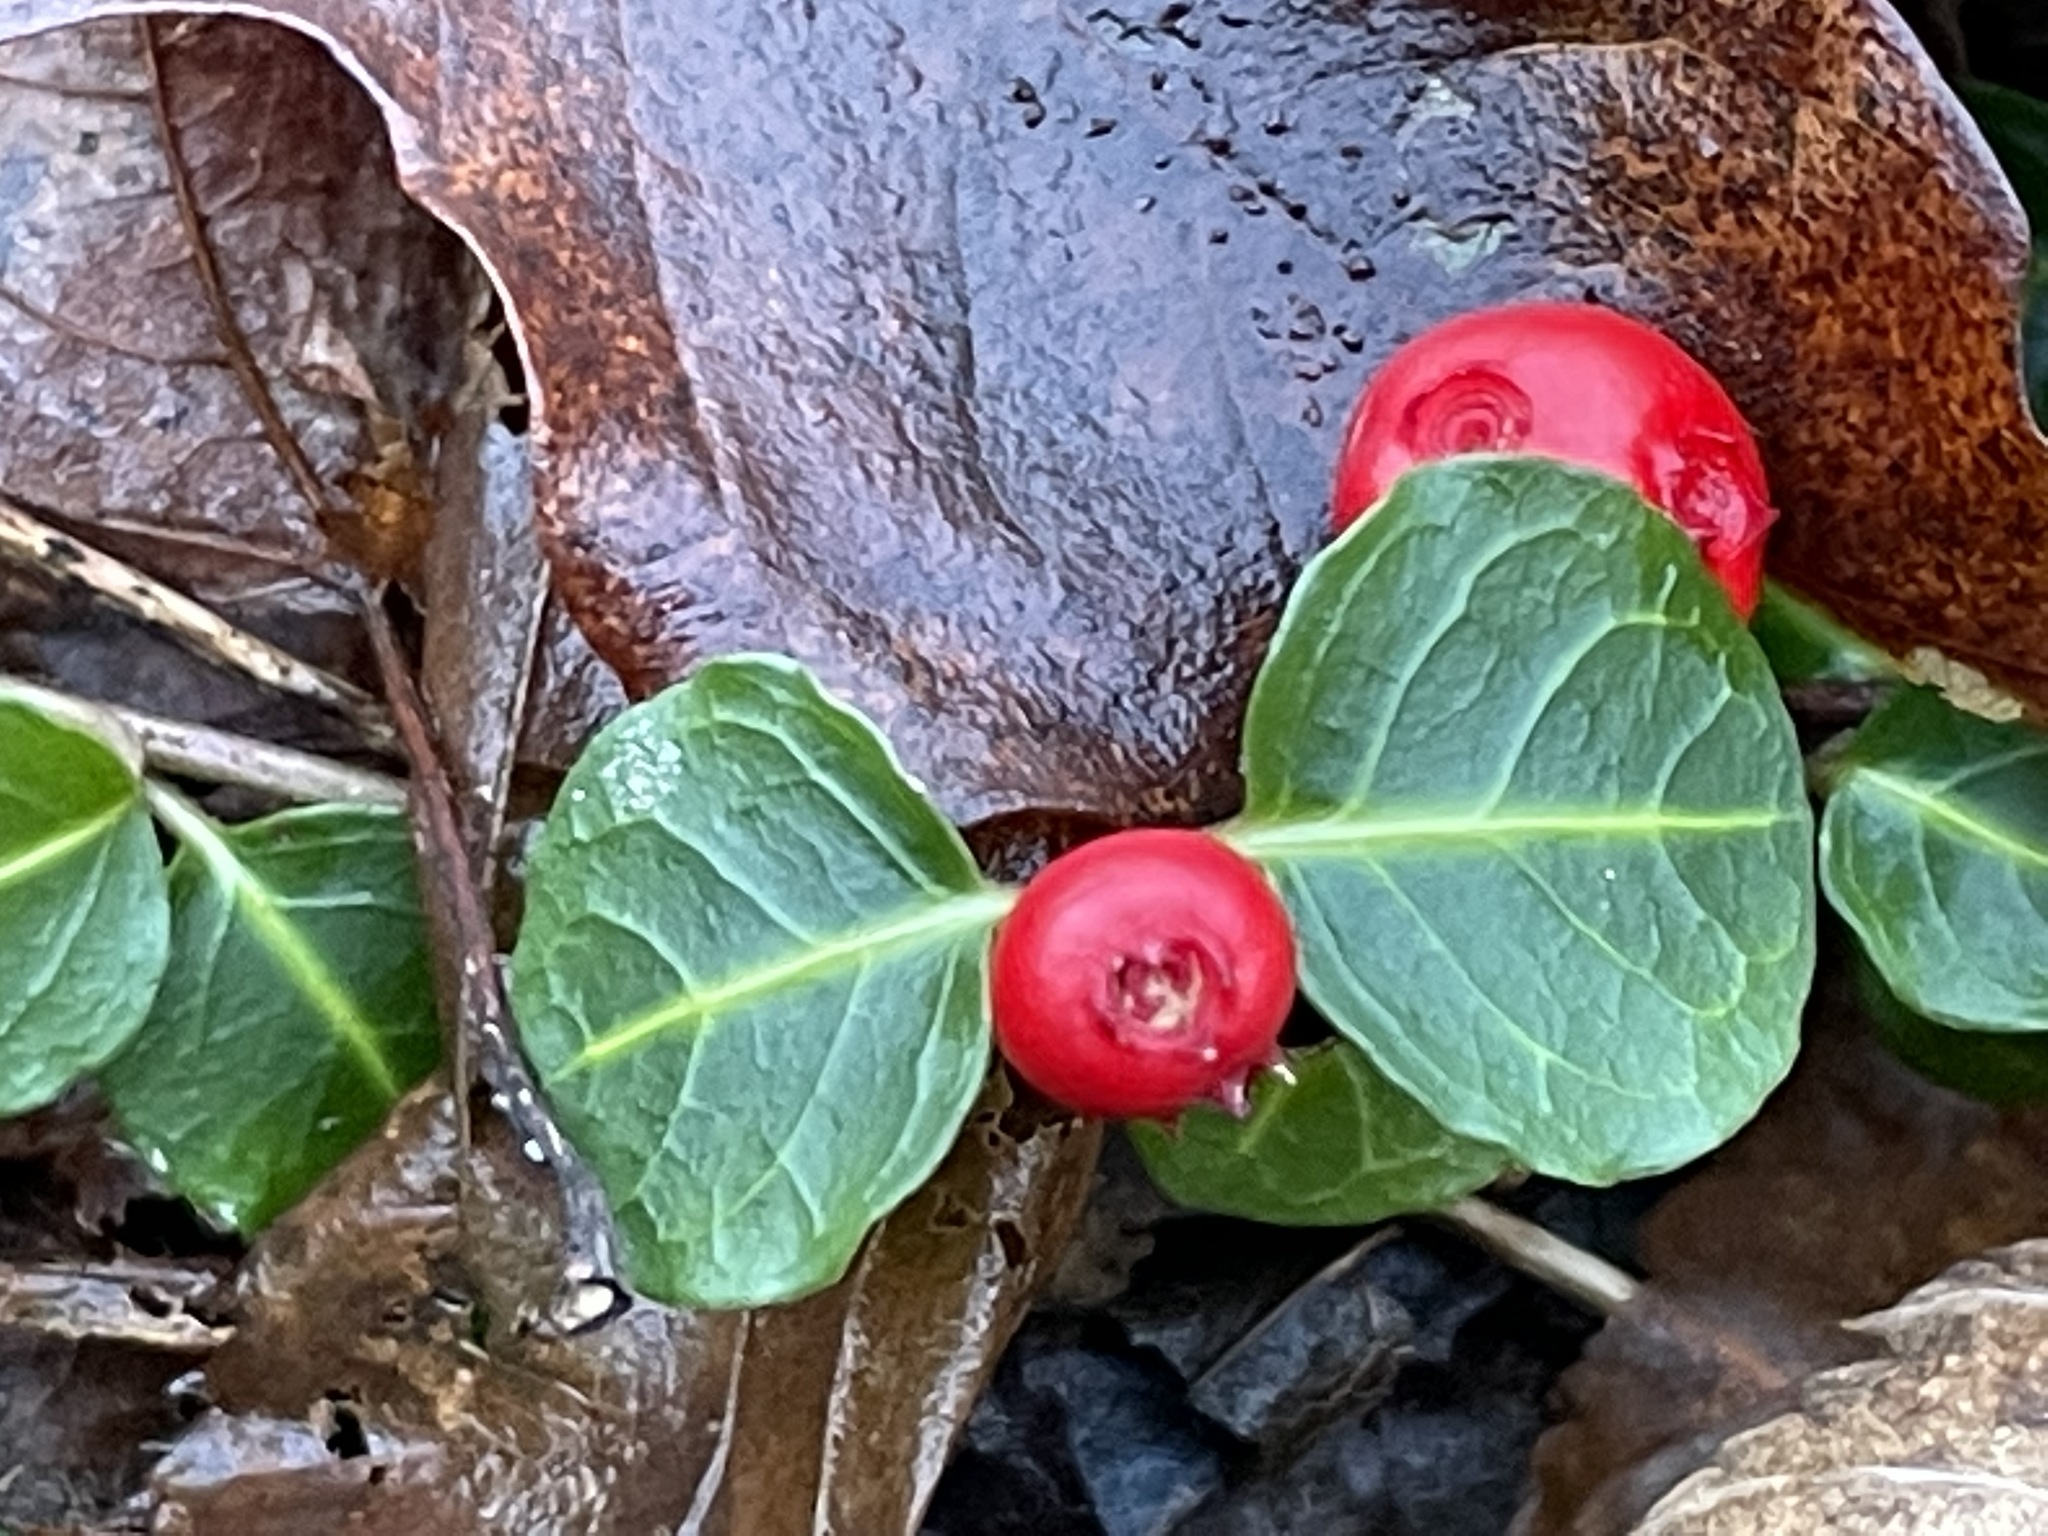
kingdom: Plantae
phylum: Tracheophyta
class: Magnoliopsida
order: Gentianales
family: Rubiaceae
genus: Mitchella
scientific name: Mitchella repens
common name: Partridge-berry
